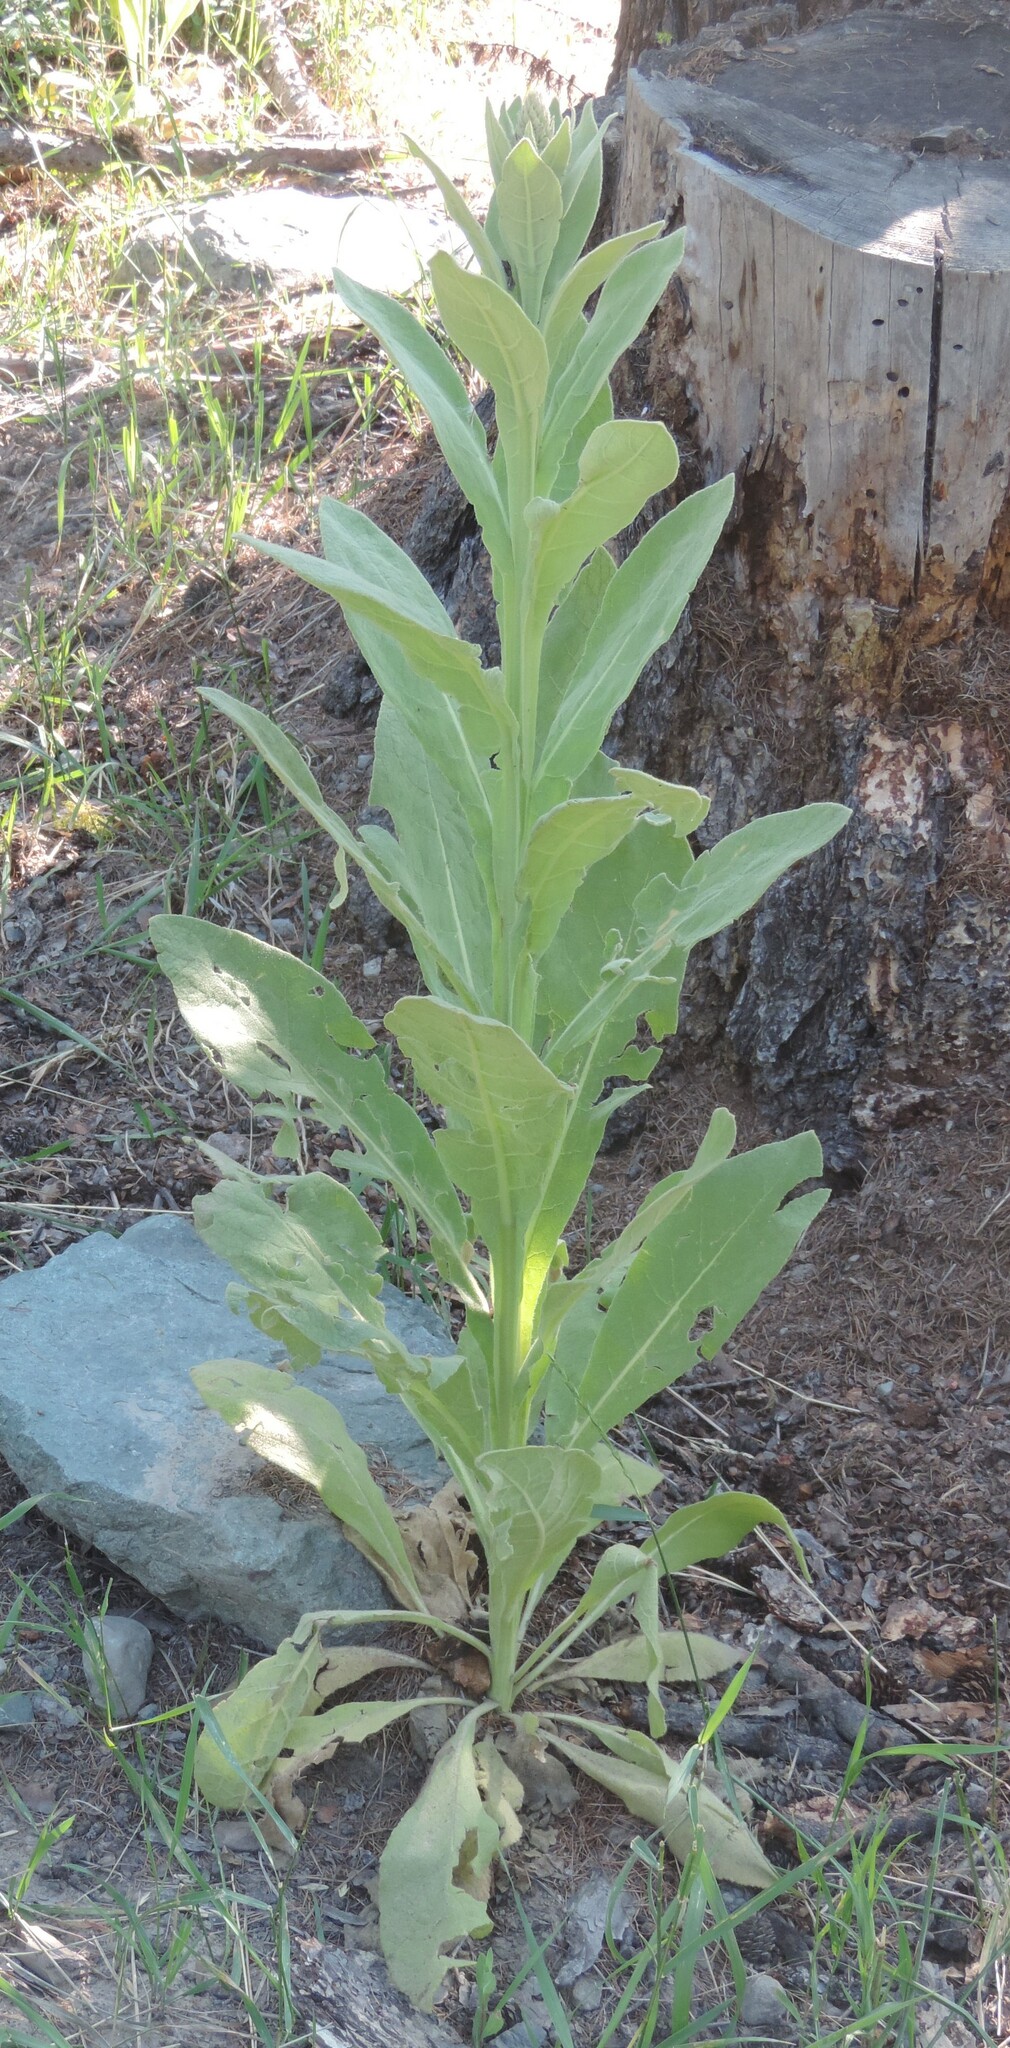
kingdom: Plantae
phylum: Tracheophyta
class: Magnoliopsida
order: Lamiales
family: Scrophulariaceae
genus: Verbascum
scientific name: Verbascum thapsus
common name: Common mullein
